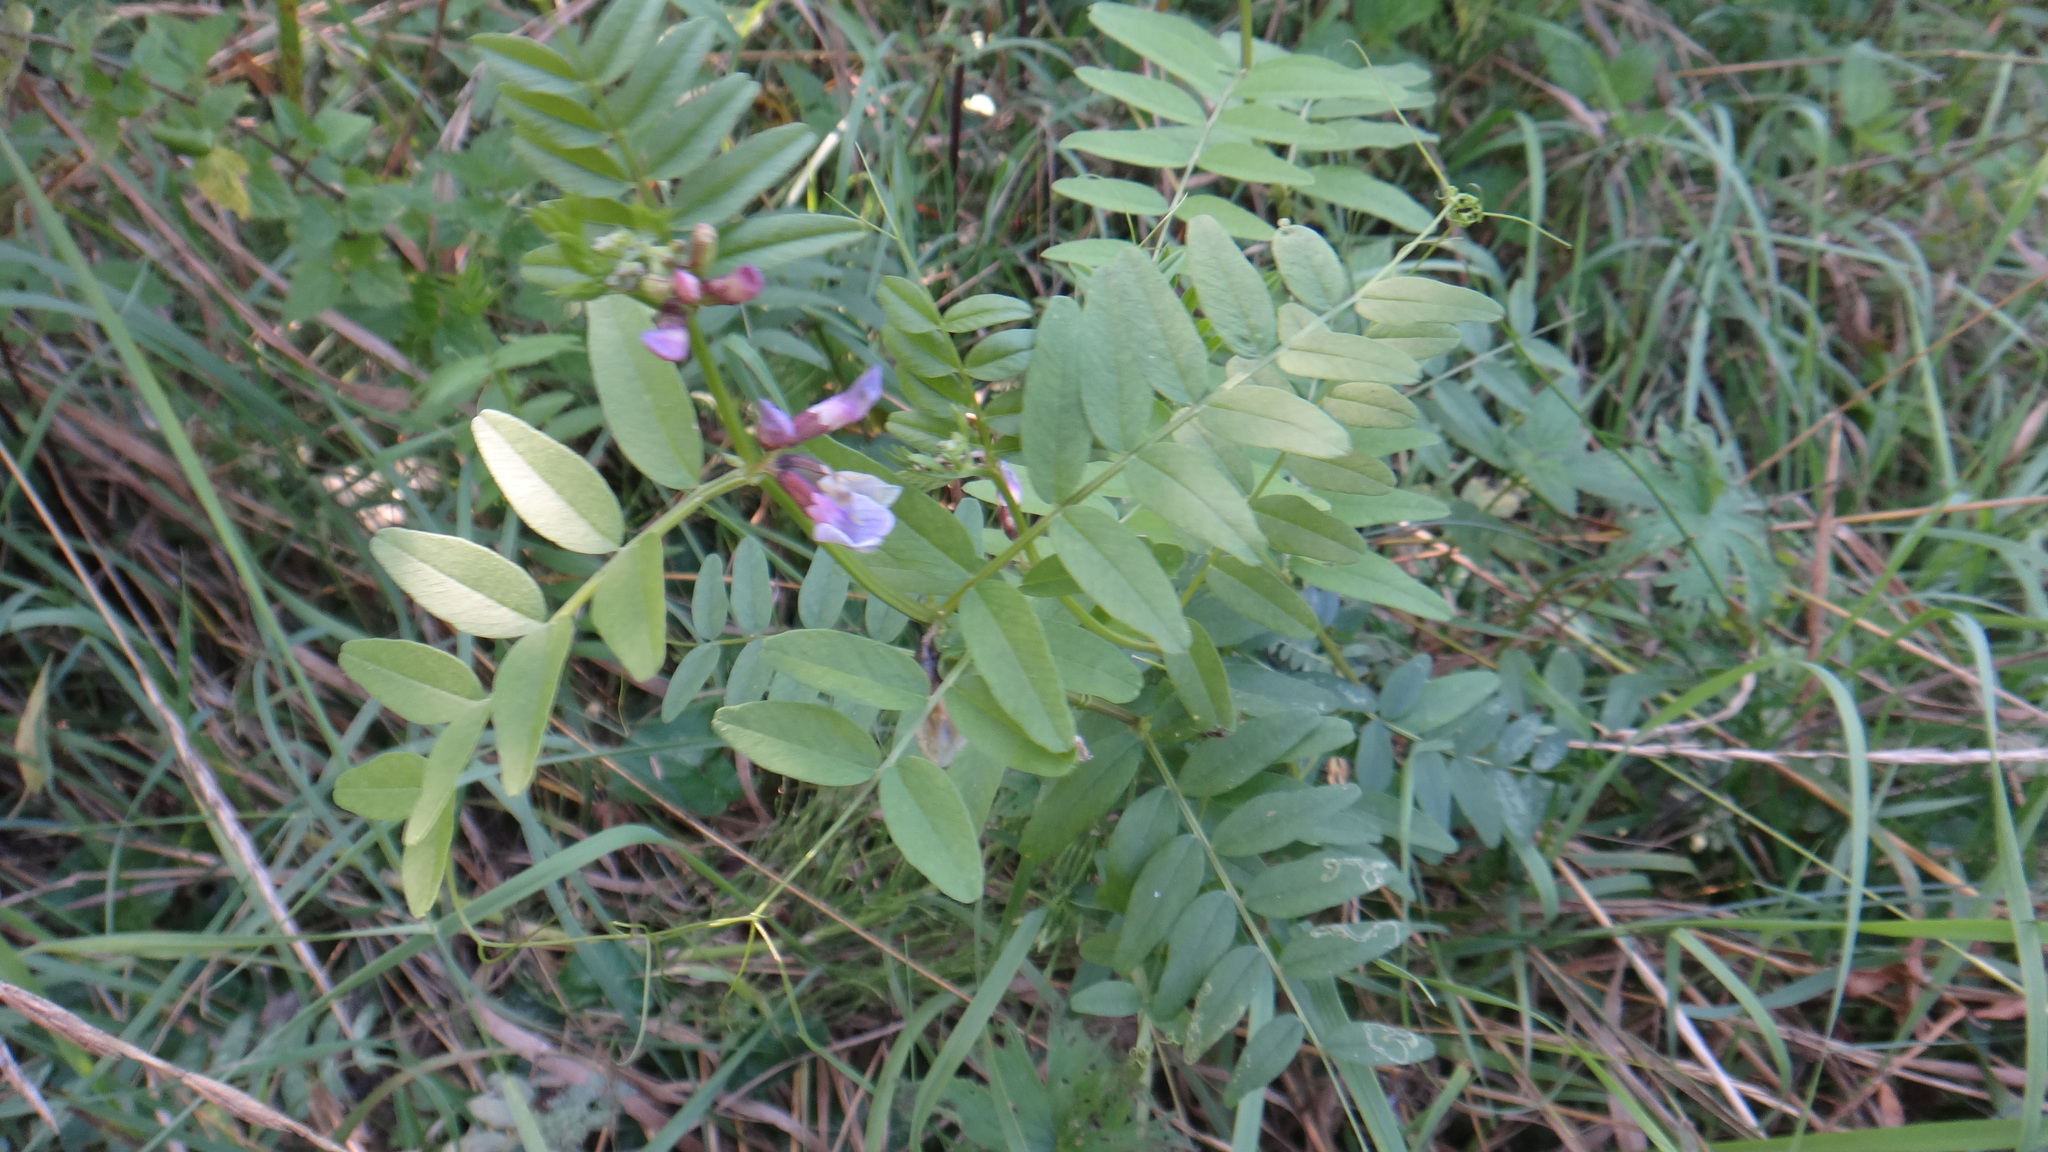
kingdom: Plantae
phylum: Tracheophyta
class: Magnoliopsida
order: Fabales
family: Fabaceae
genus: Vicia
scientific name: Vicia sepium
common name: Bush vetch
